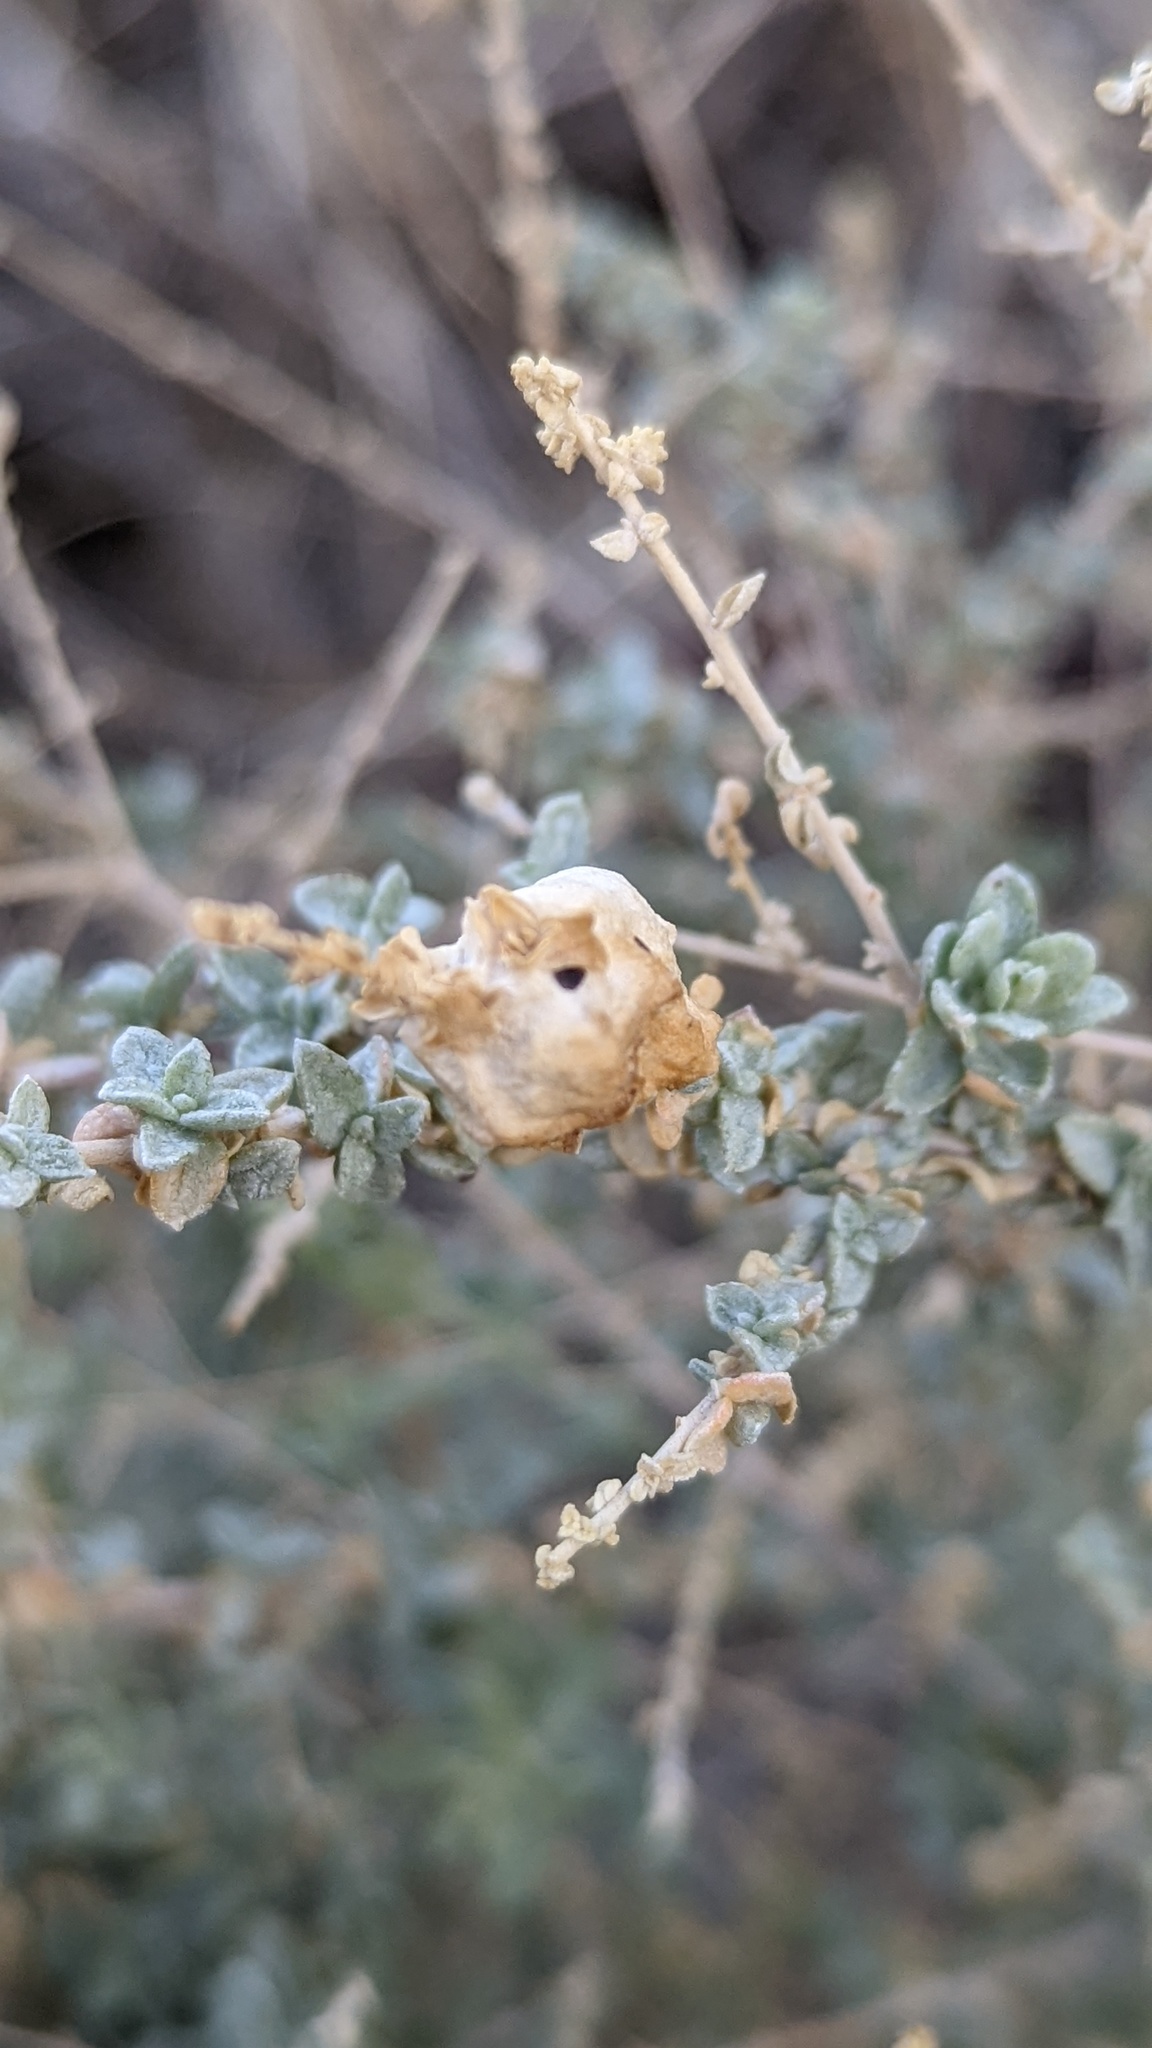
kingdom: Animalia
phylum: Arthropoda
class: Insecta
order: Diptera
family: Cecidomyiidae
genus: Asphondylia
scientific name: Asphondylia floccosa
